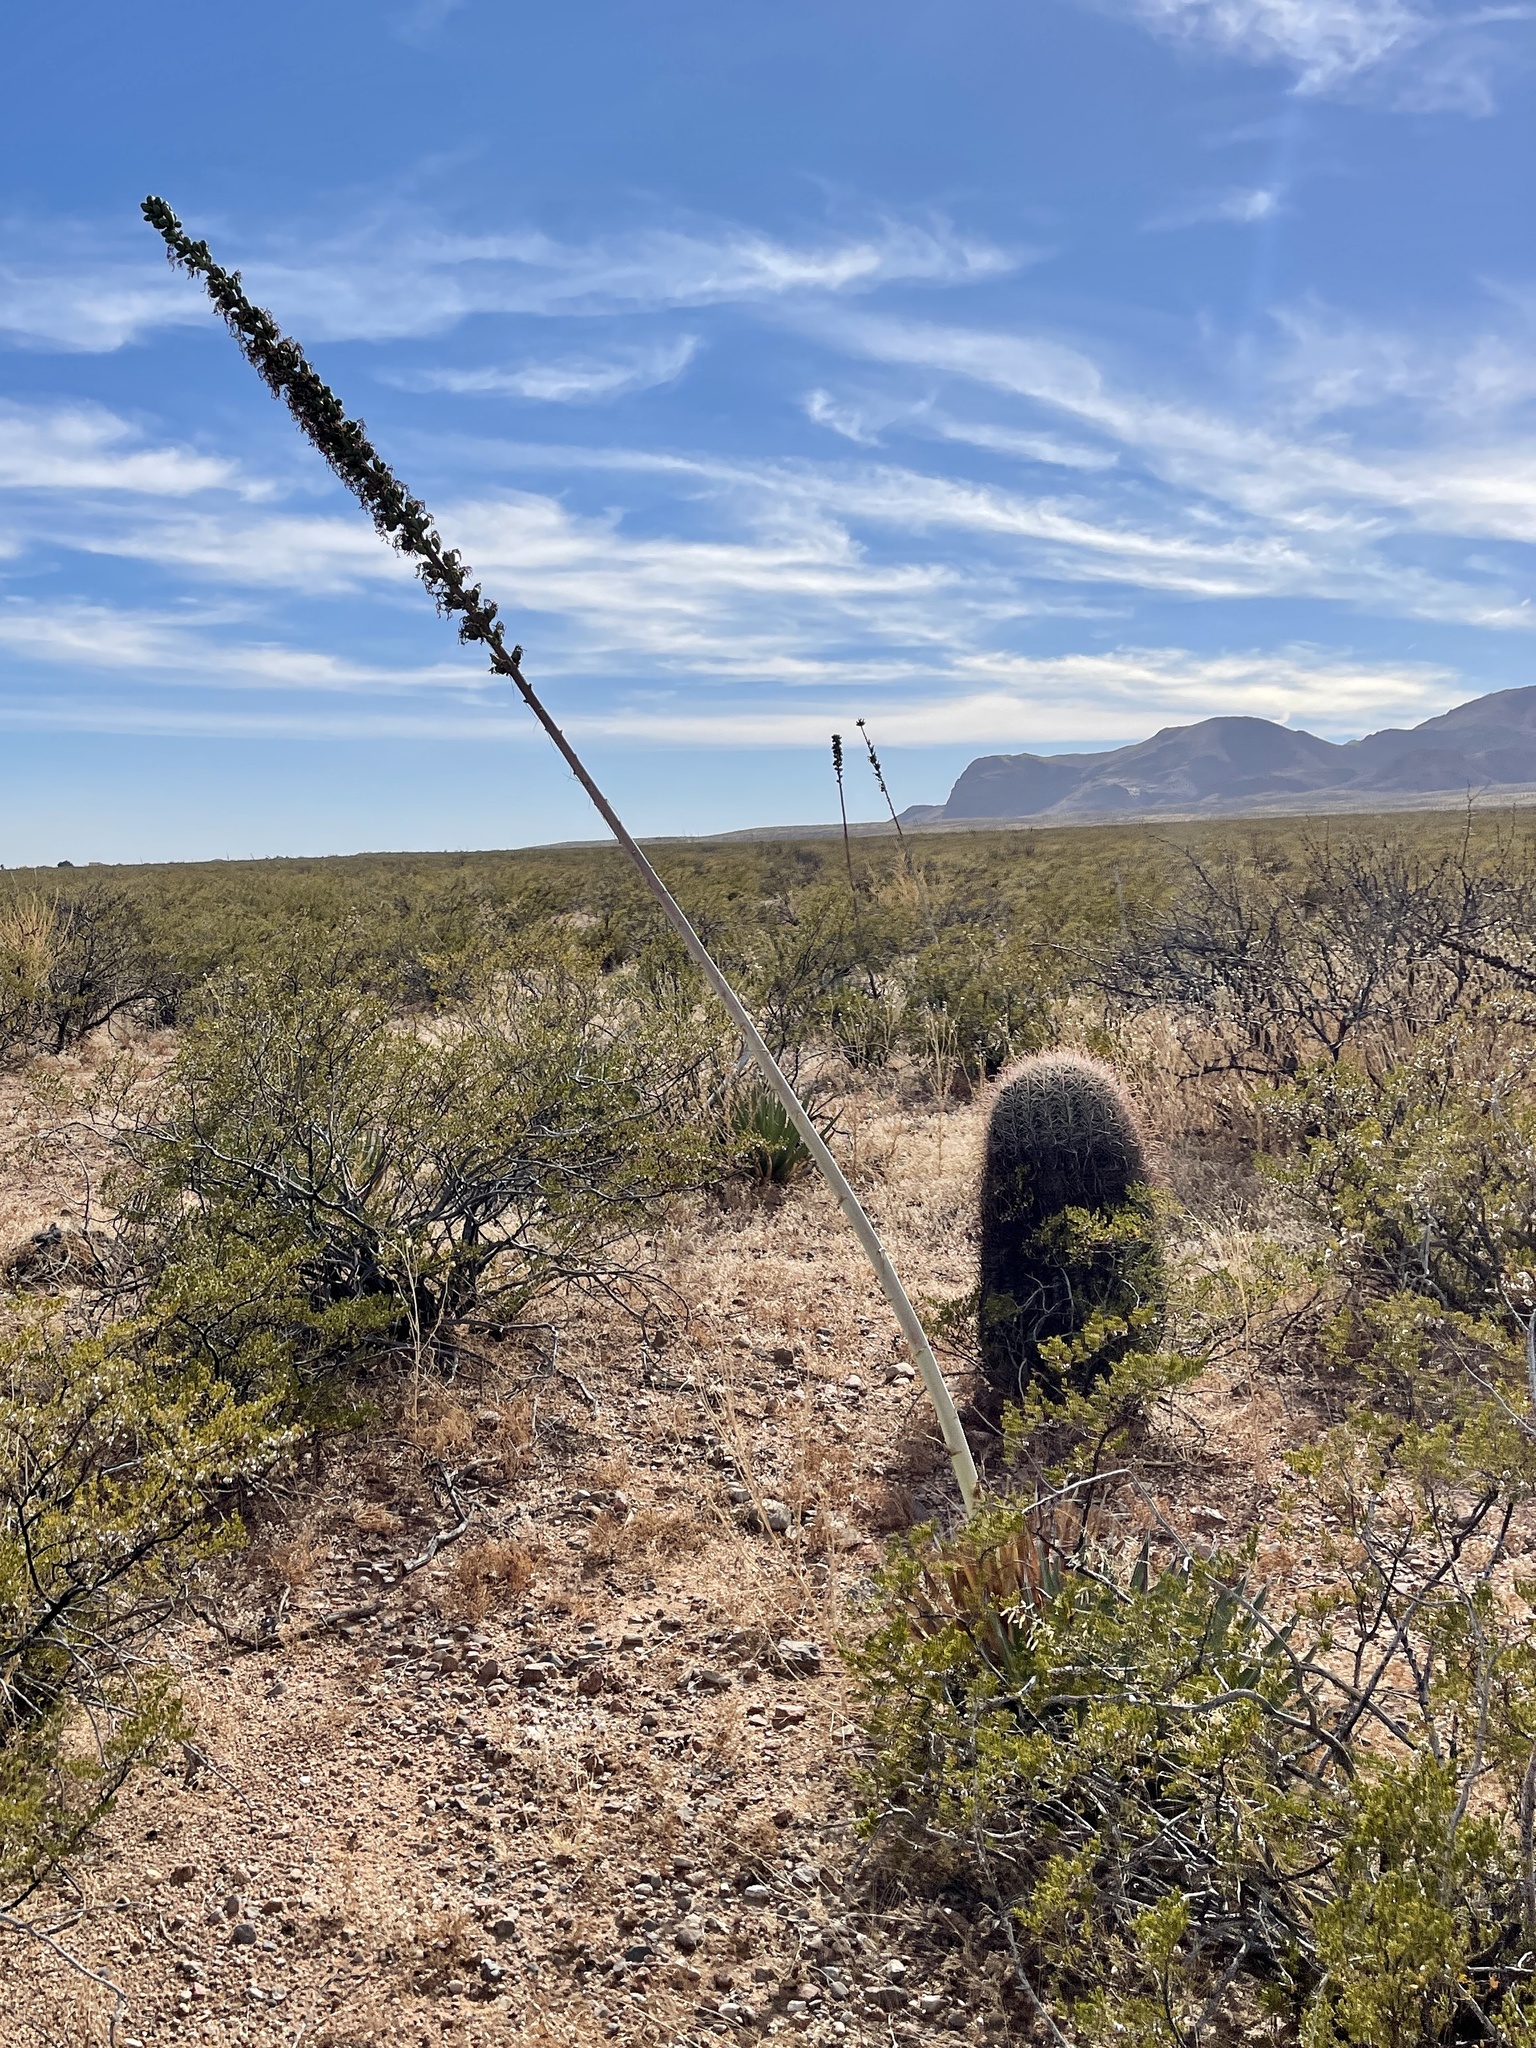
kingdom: Plantae
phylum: Tracheophyta
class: Liliopsida
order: Asparagales
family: Asparagaceae
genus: Agave
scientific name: Agave lechuguilla
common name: Lecheguilla agave
